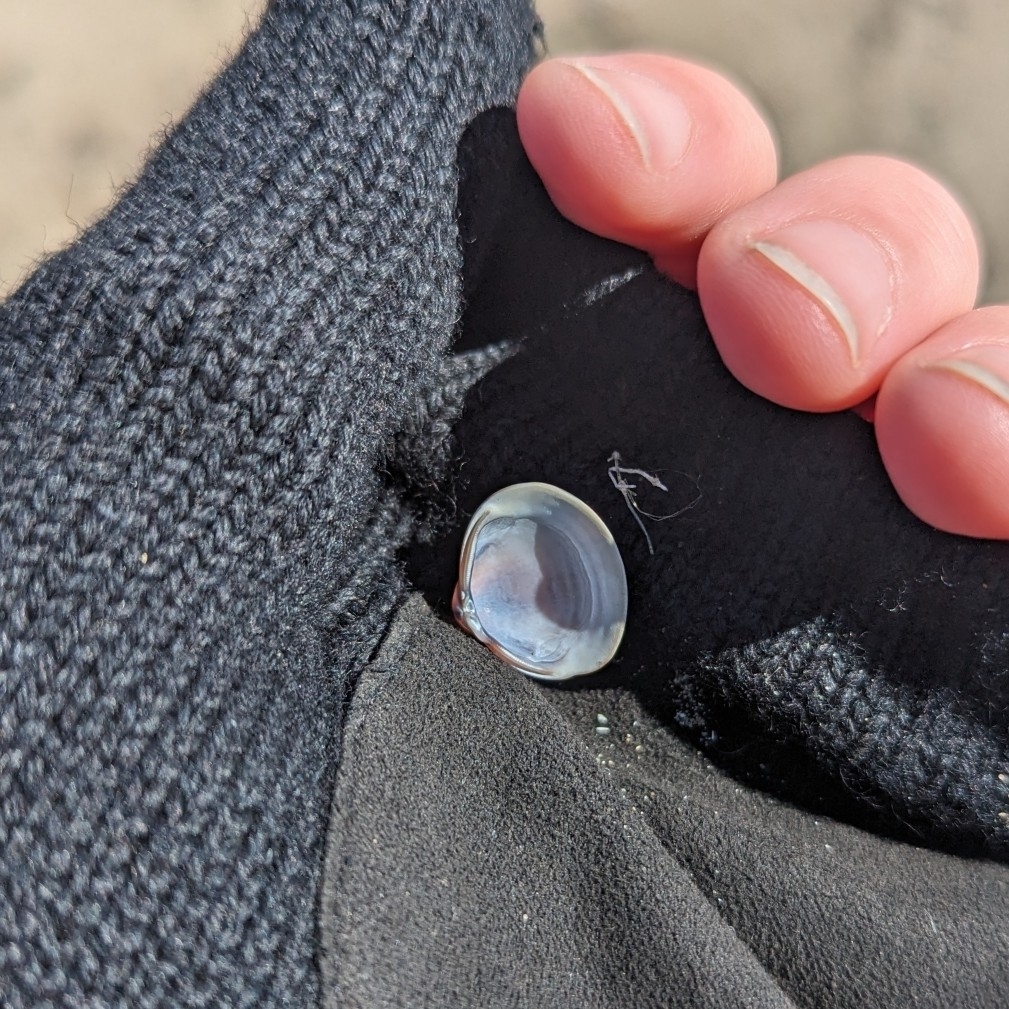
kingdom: Animalia
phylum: Mollusca
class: Bivalvia
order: Venerida
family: Cyrenidae
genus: Corbicula
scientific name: Corbicula fluminea
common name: Asian clam
